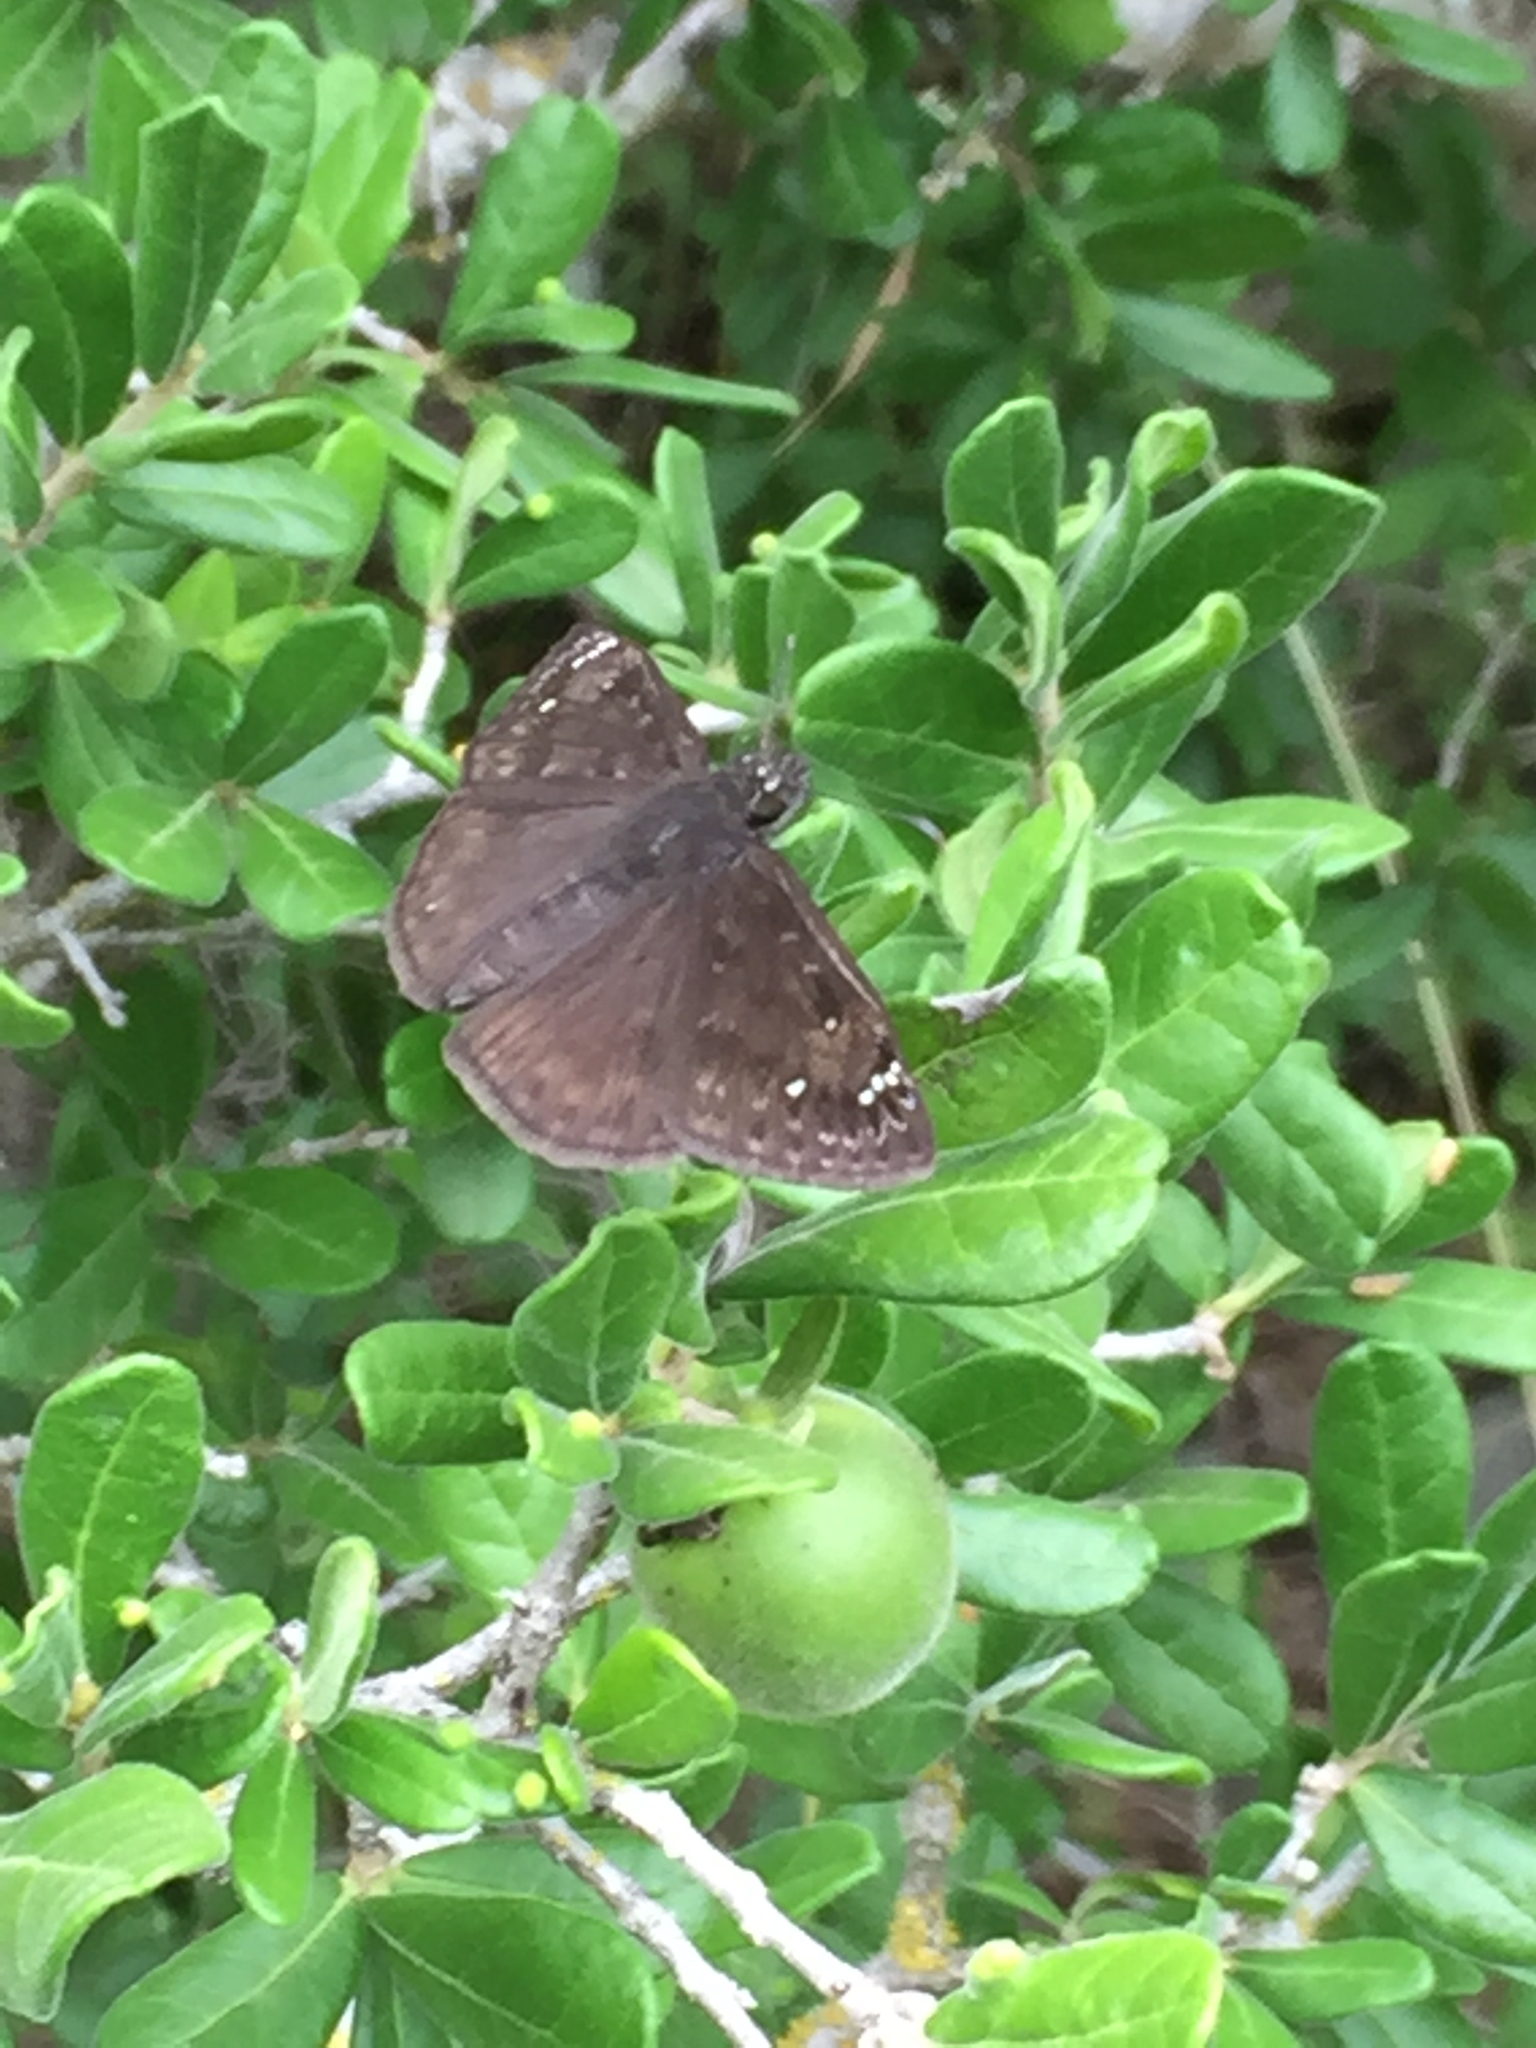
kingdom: Animalia
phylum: Arthropoda
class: Insecta
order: Lepidoptera
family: Hesperiidae
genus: Erynnis
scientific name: Erynnis horatius
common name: Horace's duskywing
